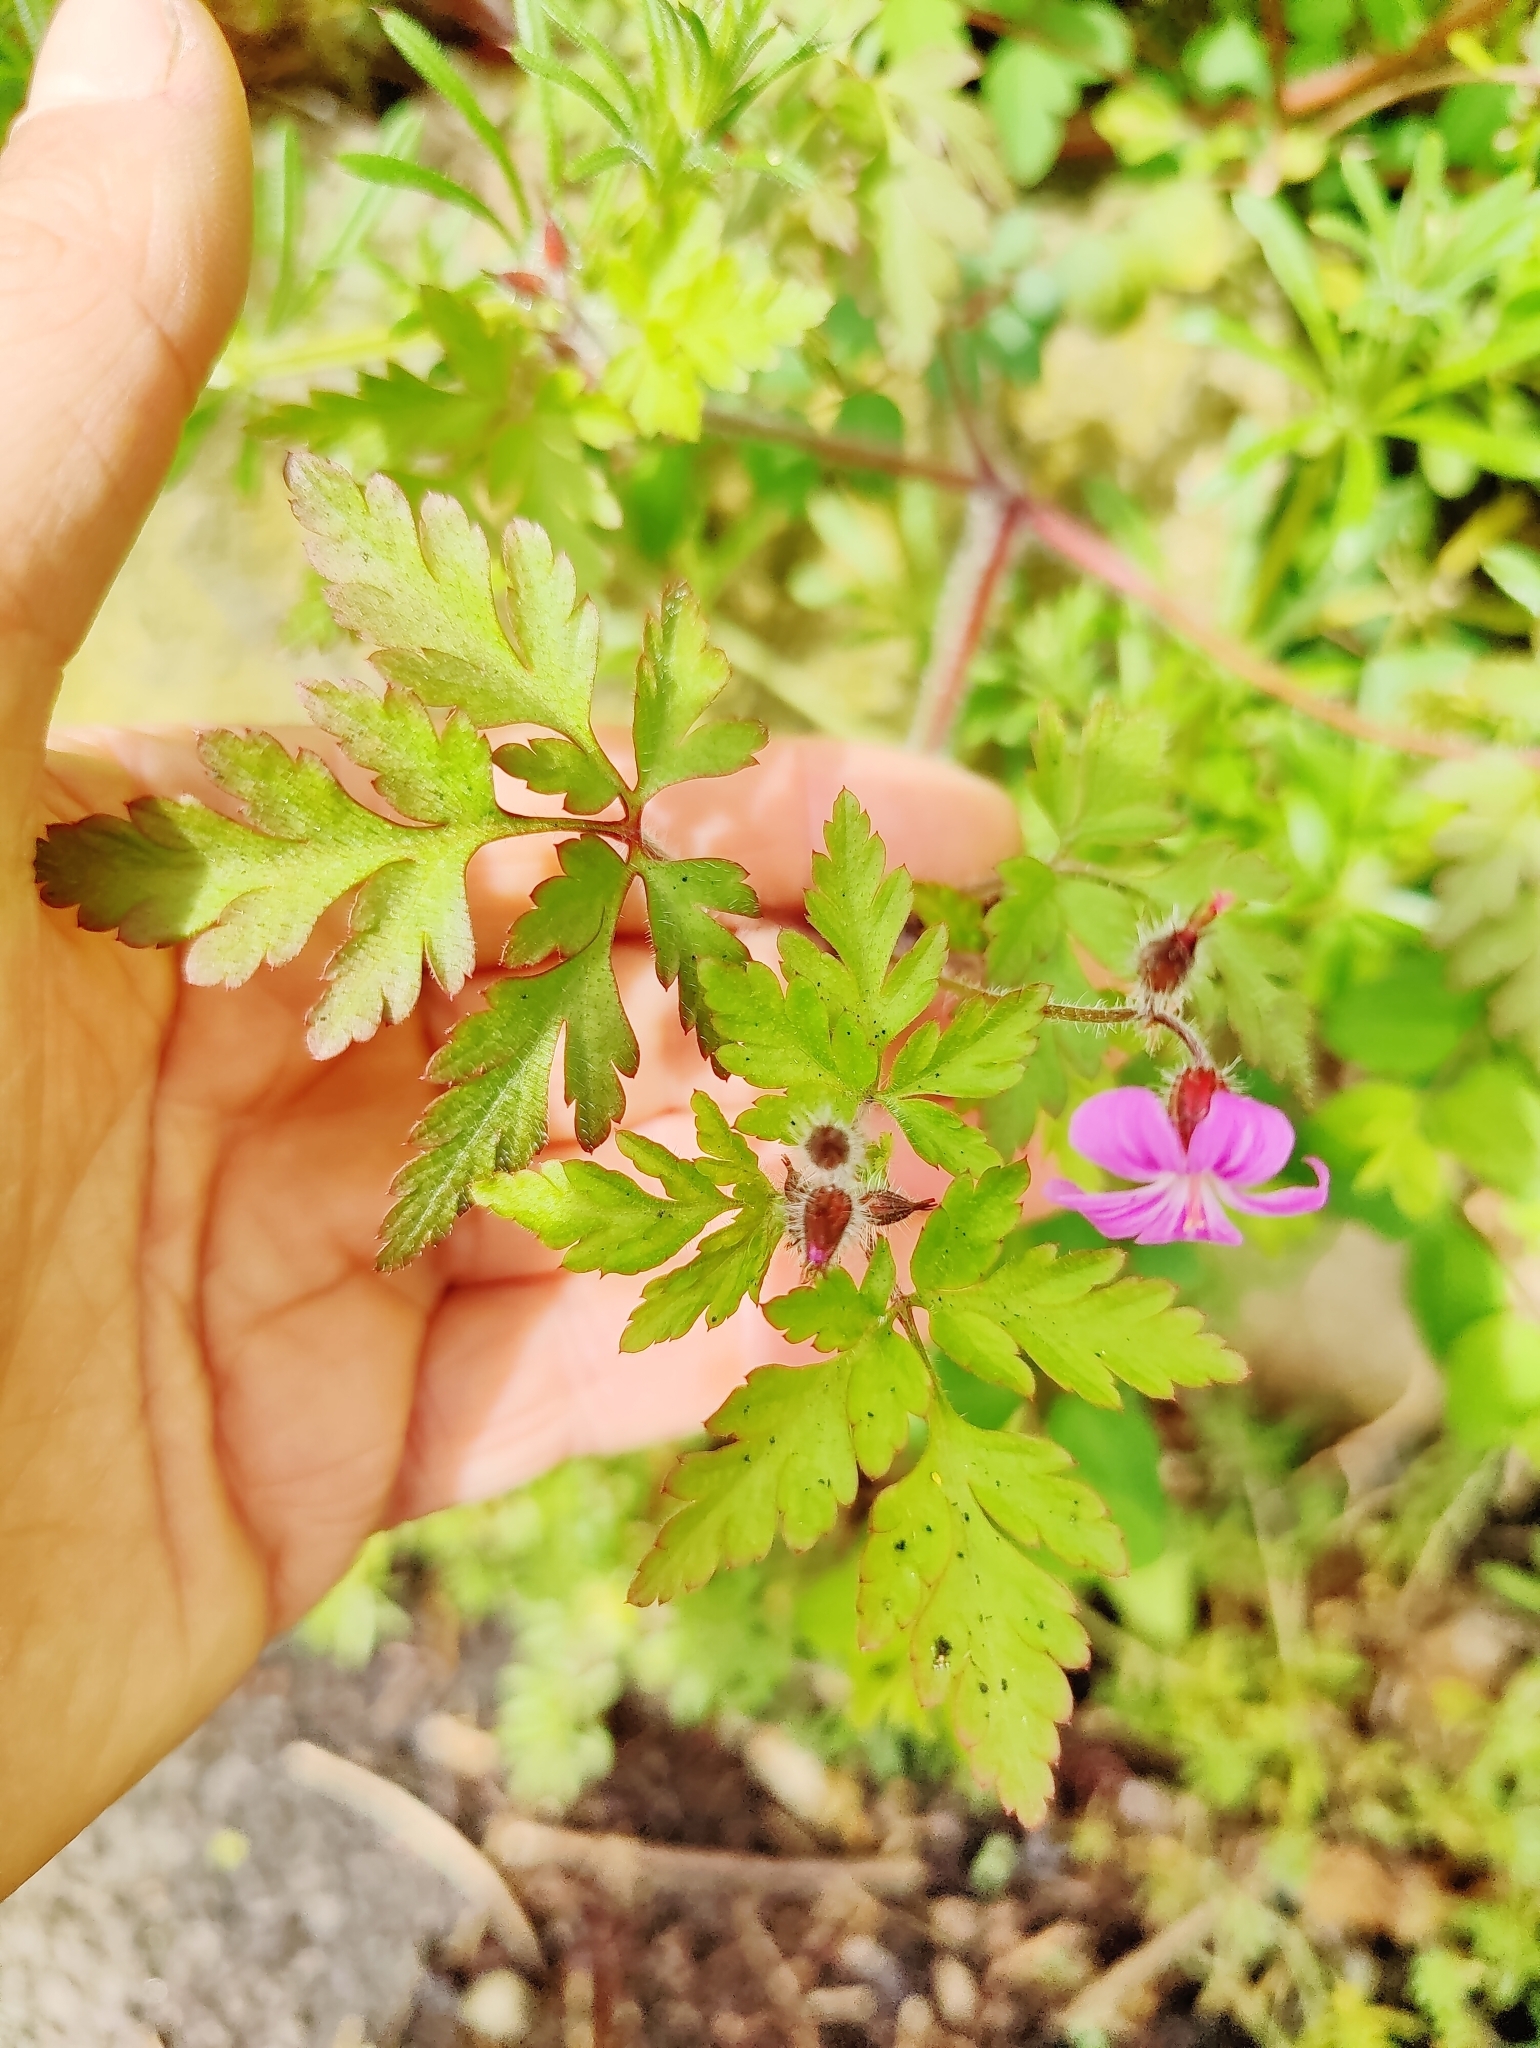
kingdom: Plantae
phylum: Tracheophyta
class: Magnoliopsida
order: Geraniales
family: Geraniaceae
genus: Geranium
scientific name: Geranium robertianum
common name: Herb-robert
